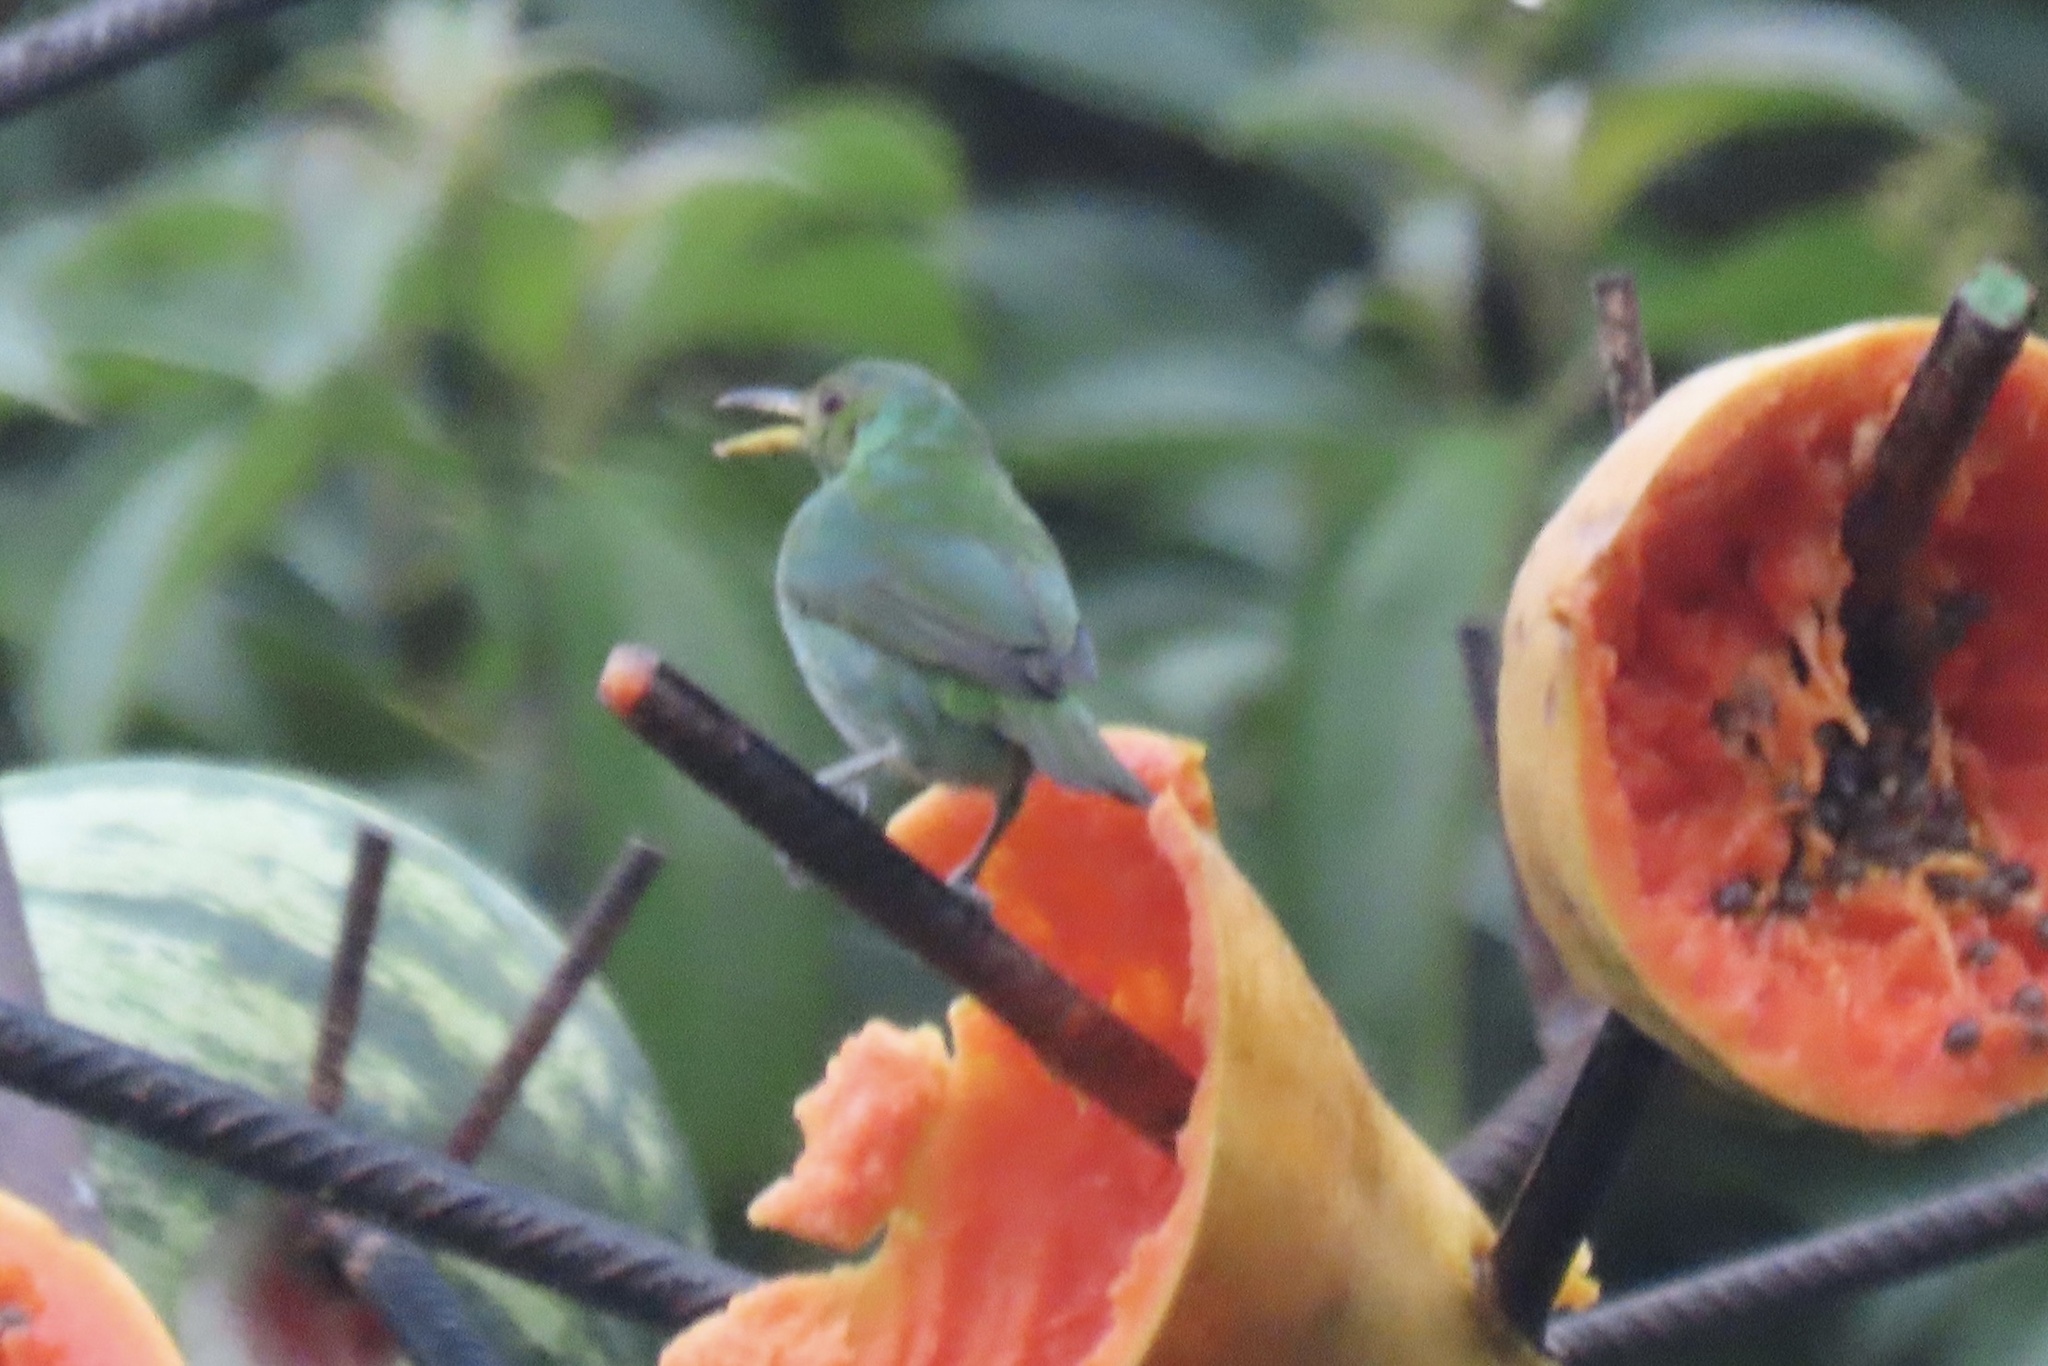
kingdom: Animalia
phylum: Chordata
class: Aves
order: Passeriformes
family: Thraupidae
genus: Chlorophanes
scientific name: Chlorophanes spiza
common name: Green honeycreeper
